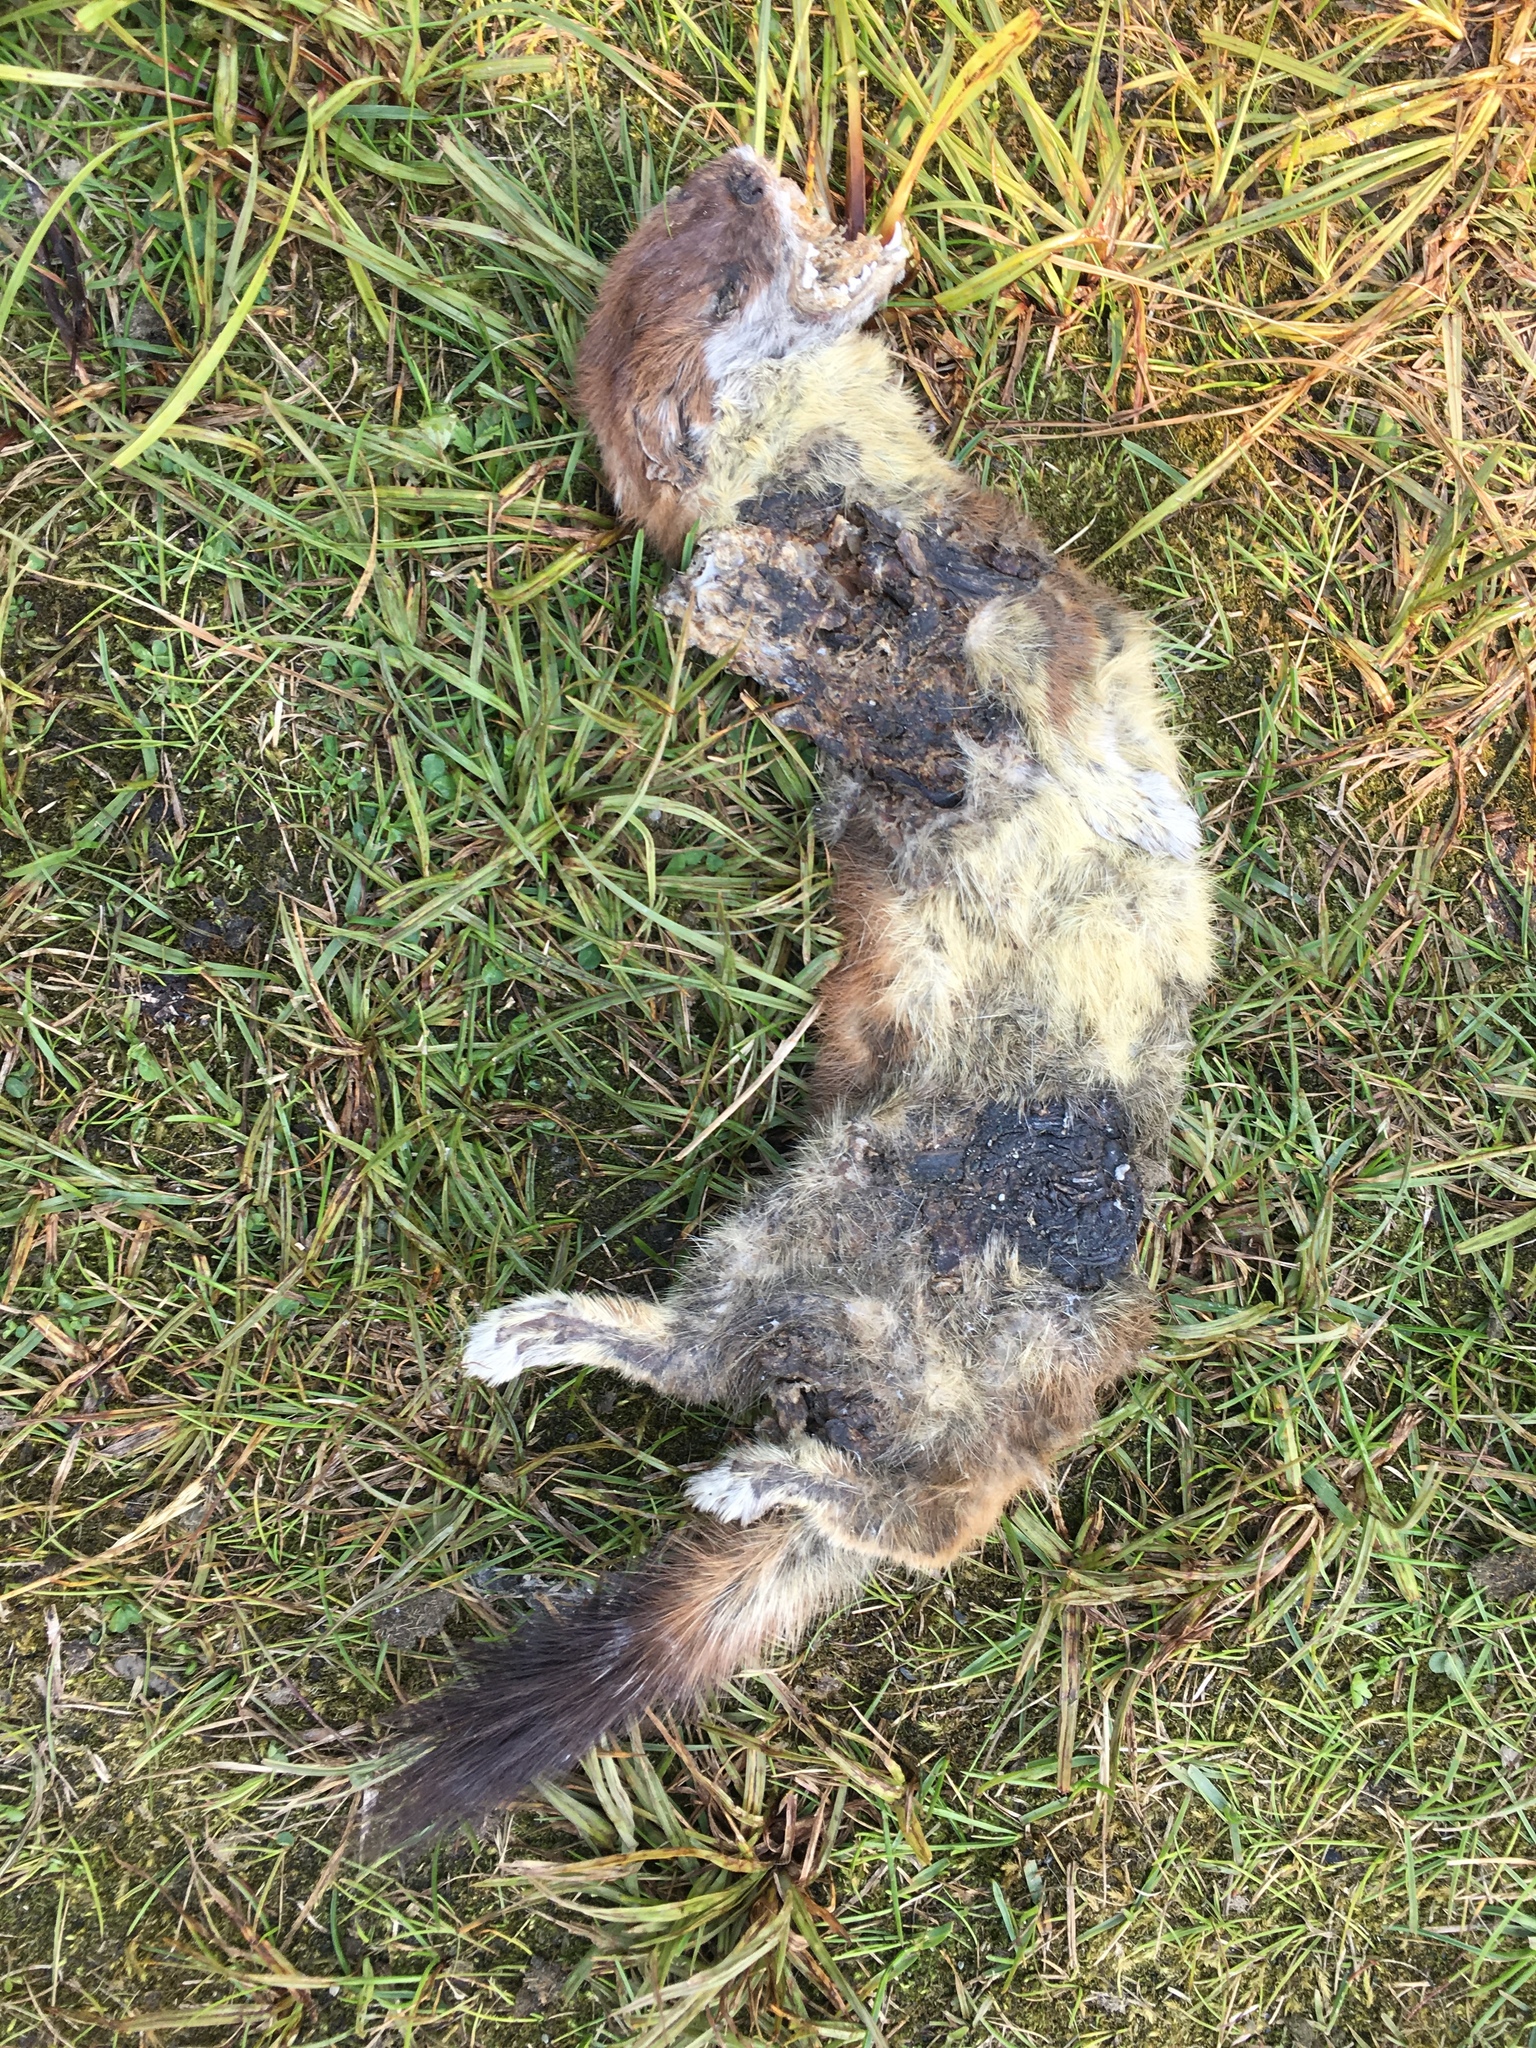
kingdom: Animalia
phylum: Chordata
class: Mammalia
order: Carnivora
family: Mustelidae
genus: Mustela
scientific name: Mustela erminea
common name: Stoat
